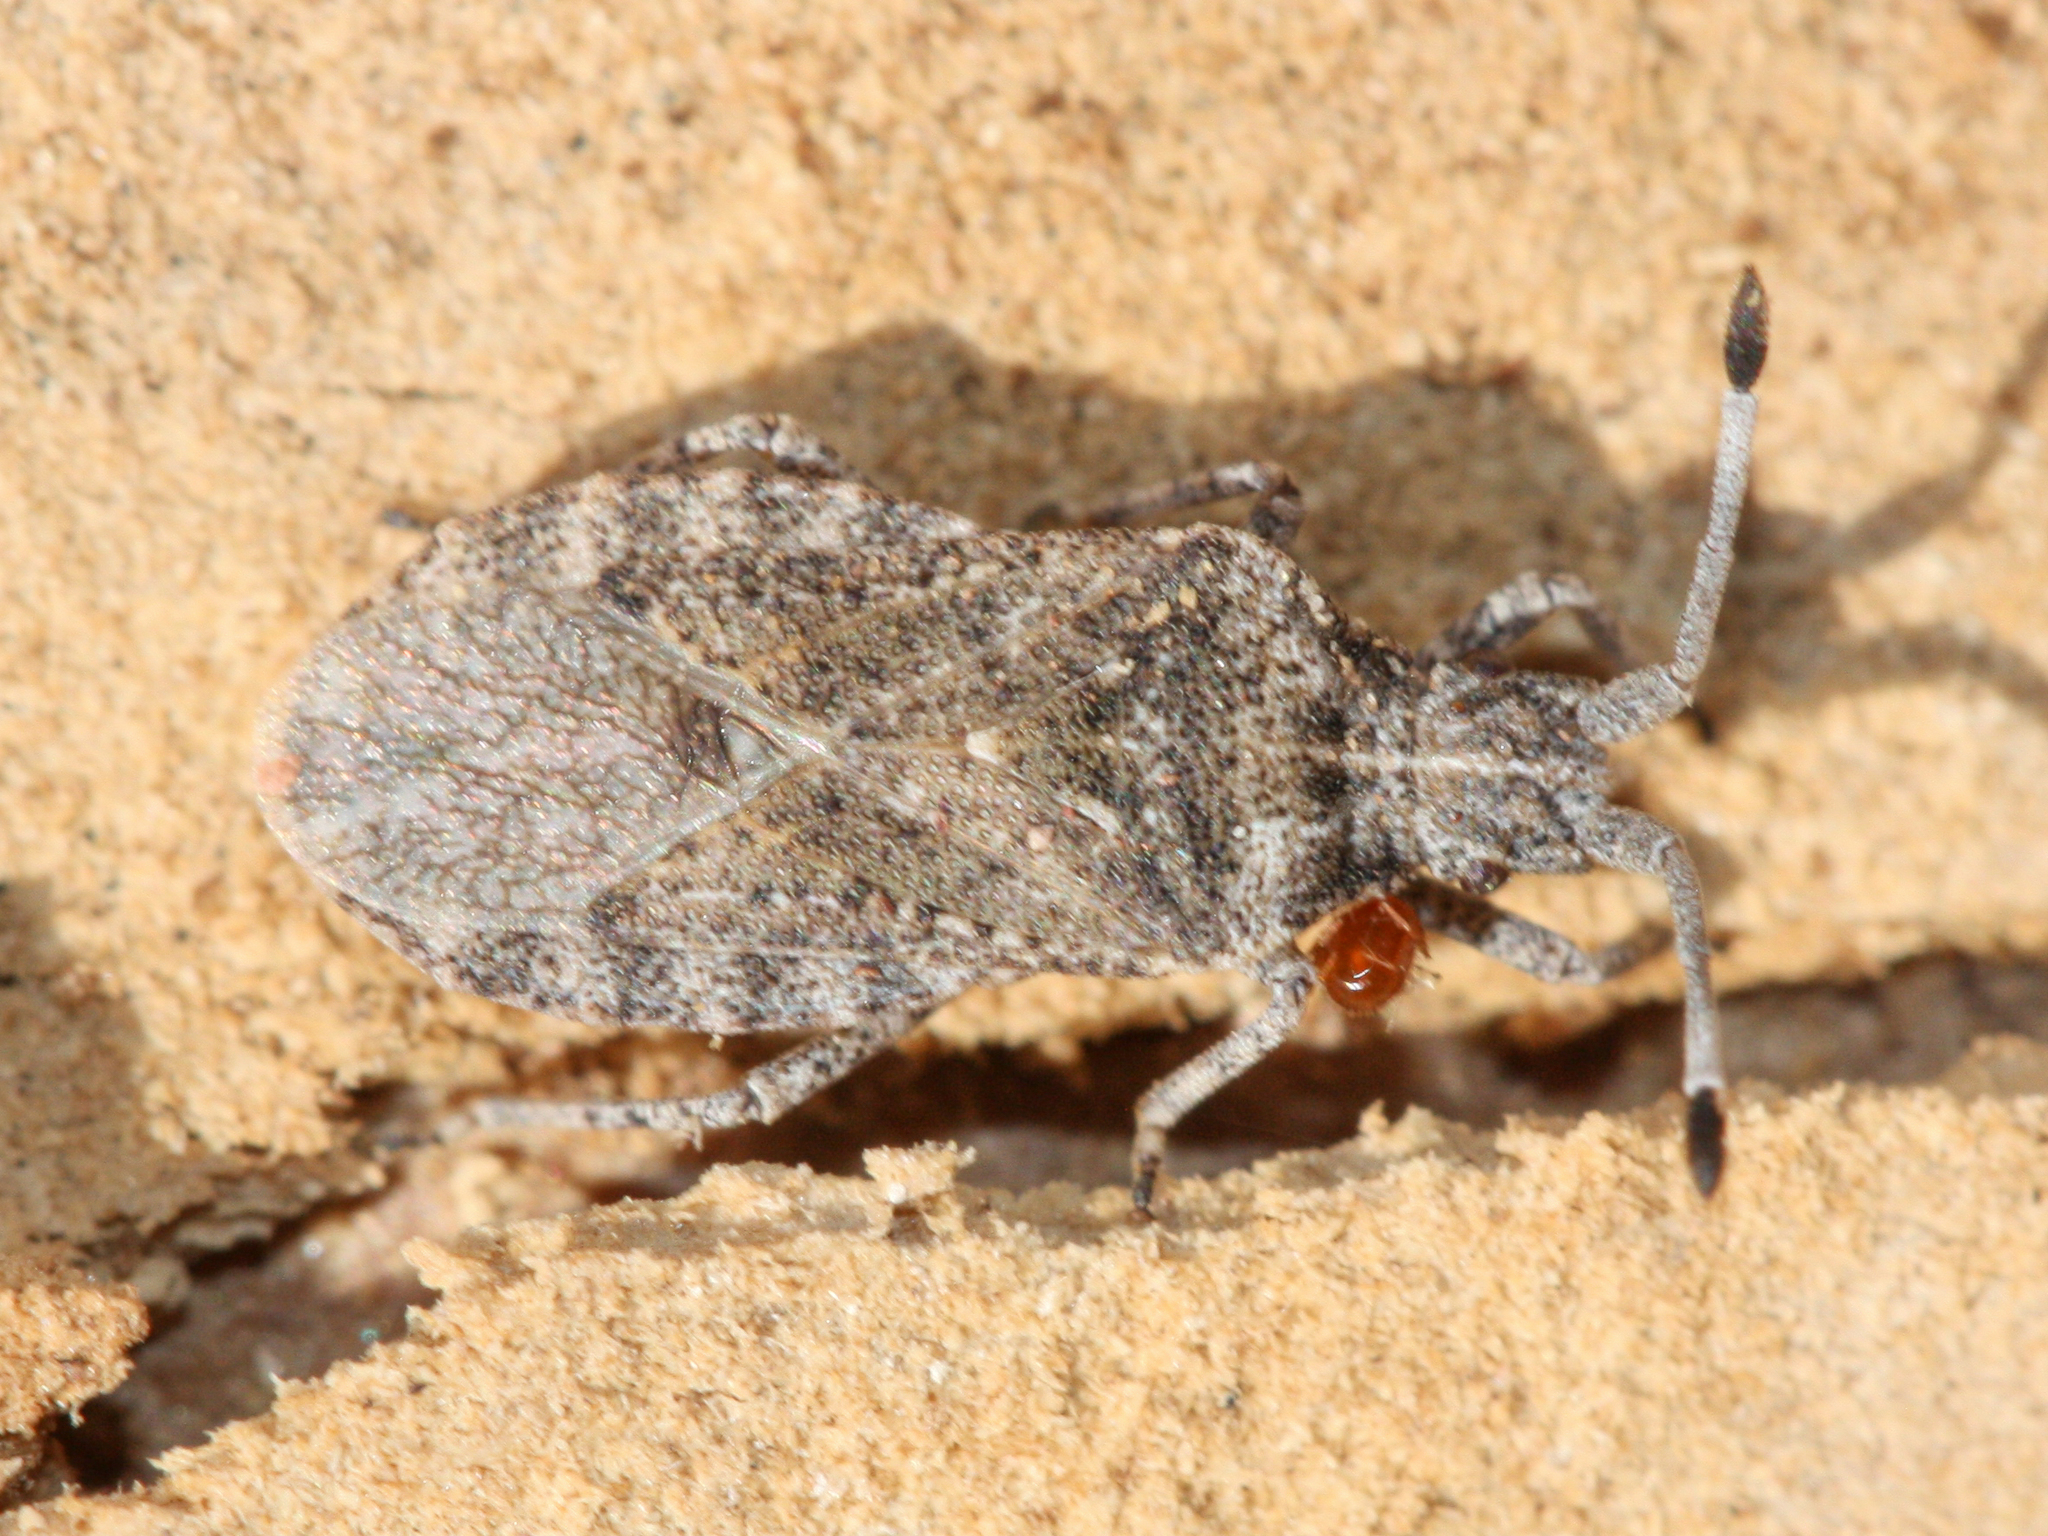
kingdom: Animalia
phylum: Arthropoda
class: Insecta
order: Hemiptera
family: Coreidae
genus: Scolopocerus
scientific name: Scolopocerus uhleri
